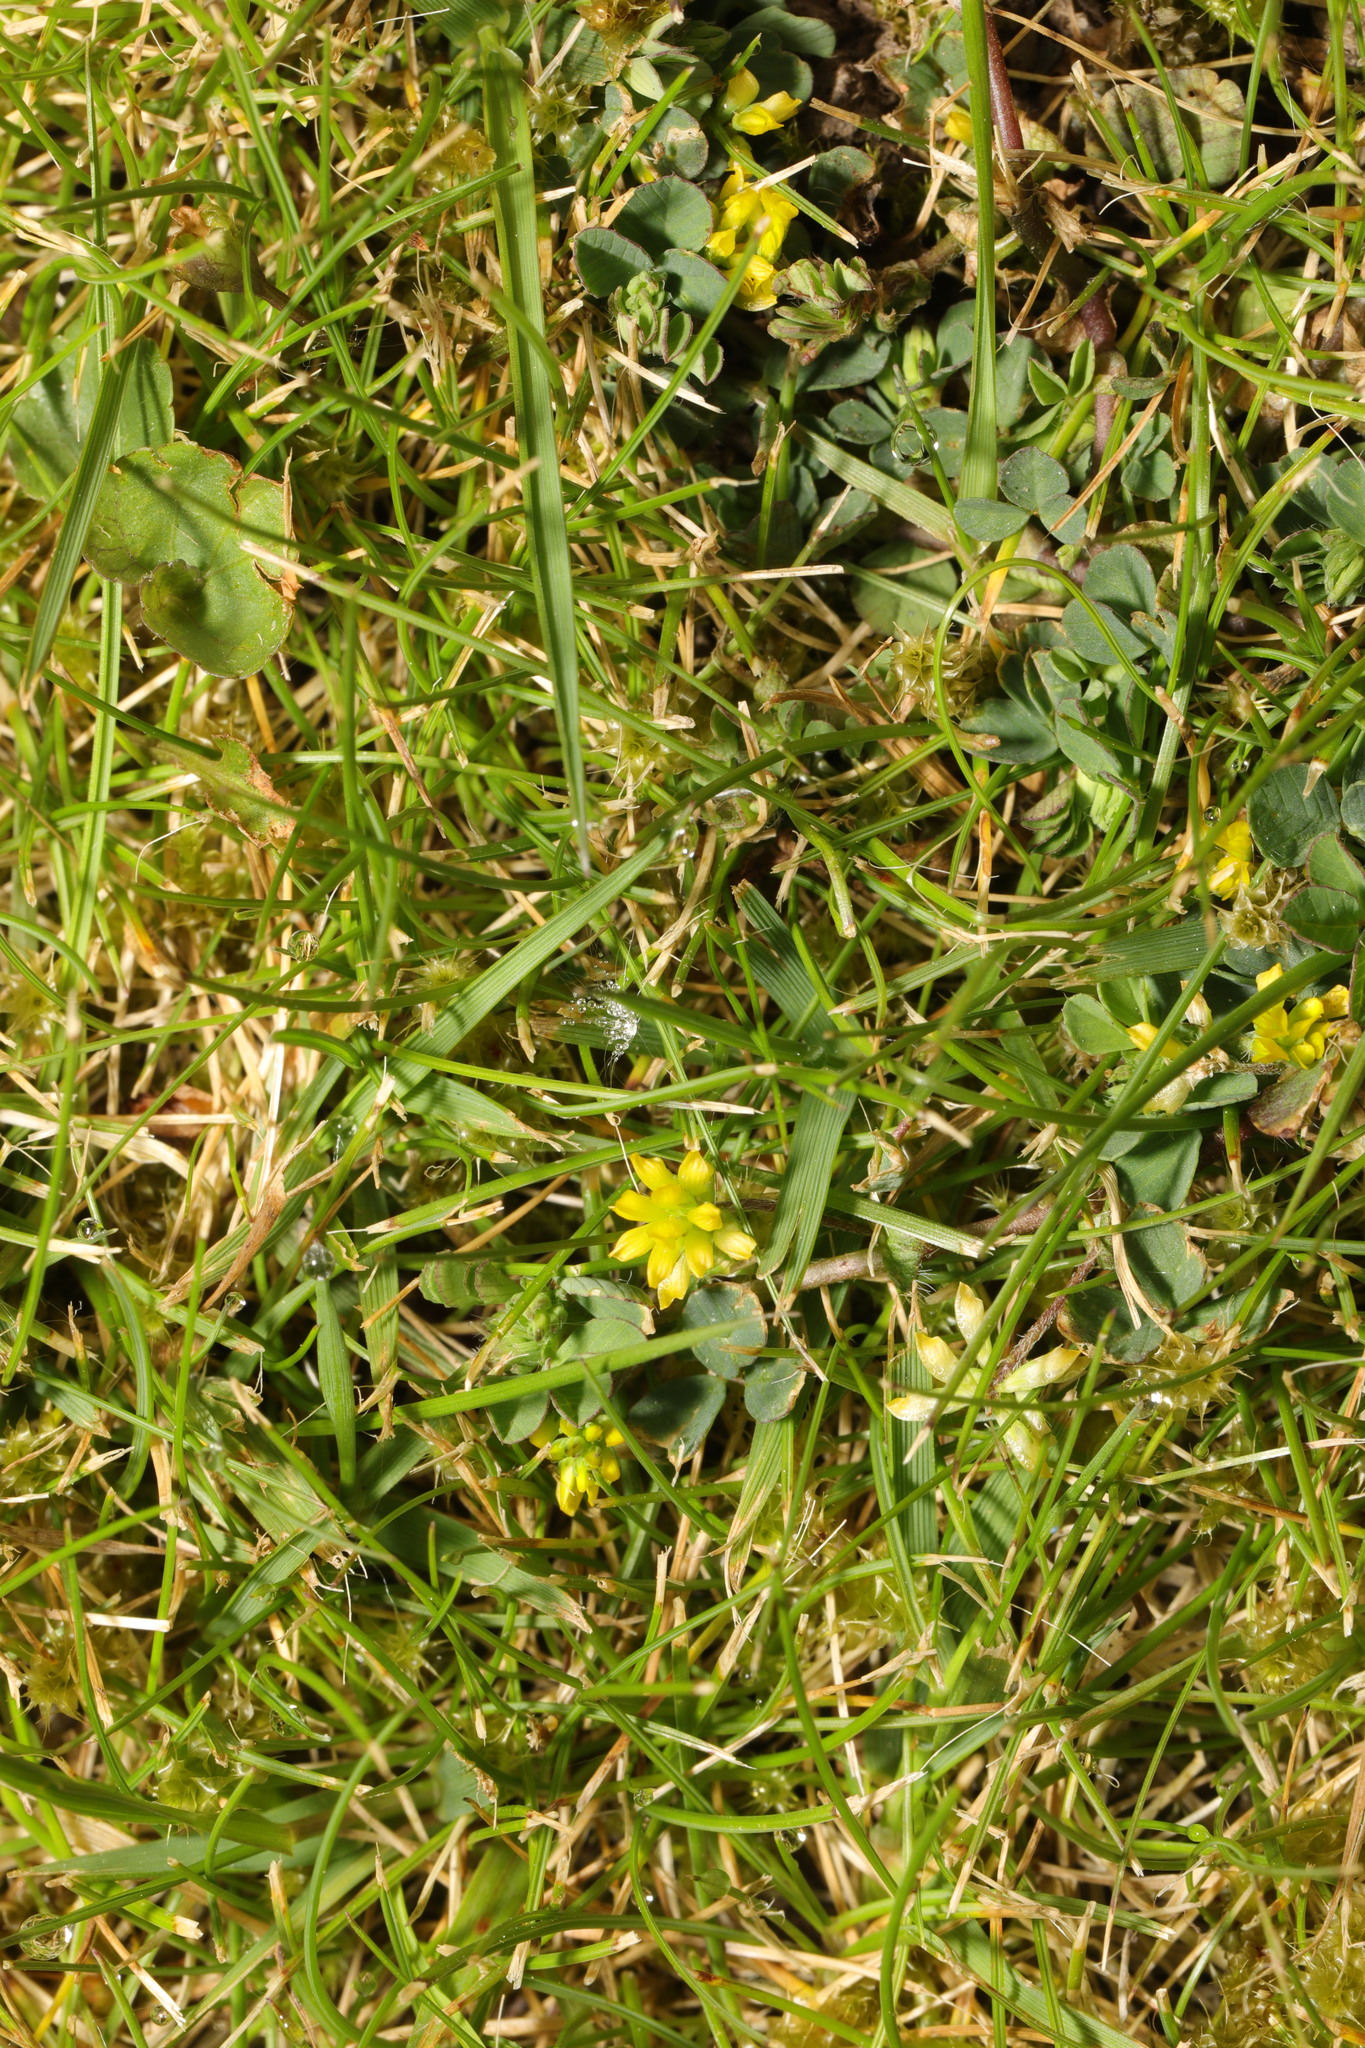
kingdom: Plantae
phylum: Tracheophyta
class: Magnoliopsida
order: Fabales
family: Fabaceae
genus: Trifolium
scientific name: Trifolium dubium
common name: Suckling clover
